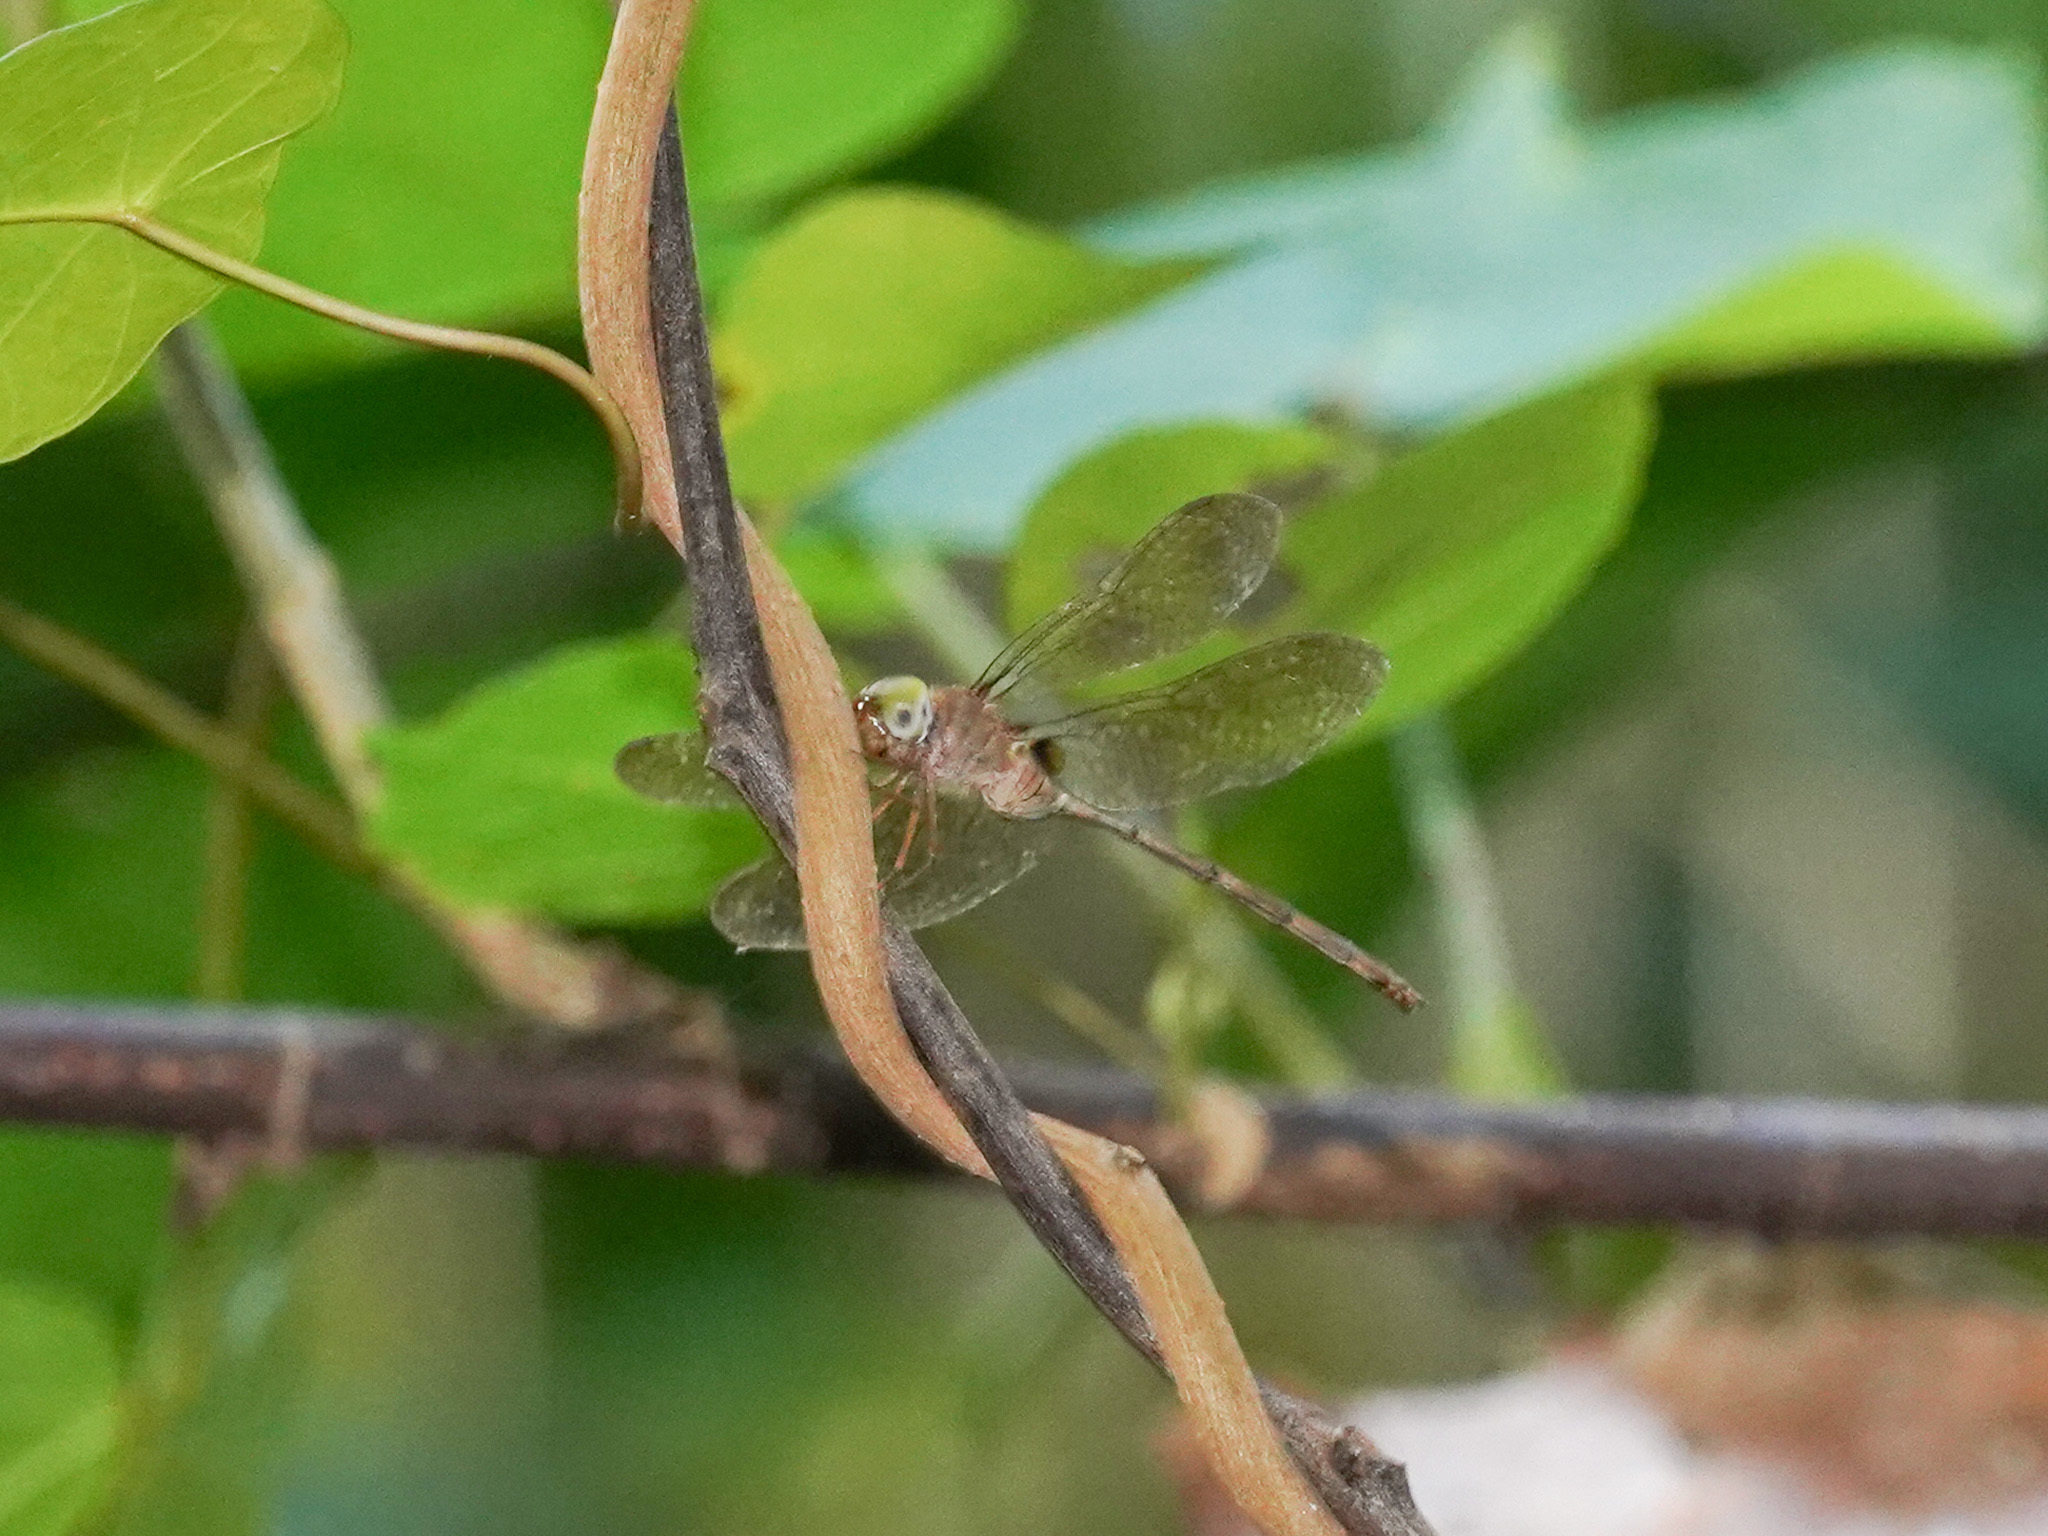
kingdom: Animalia
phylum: Arthropoda
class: Insecta
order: Odonata
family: Libellulidae
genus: Zyxomma
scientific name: Zyxomma petiolatum
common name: Dingy dusk-darter
